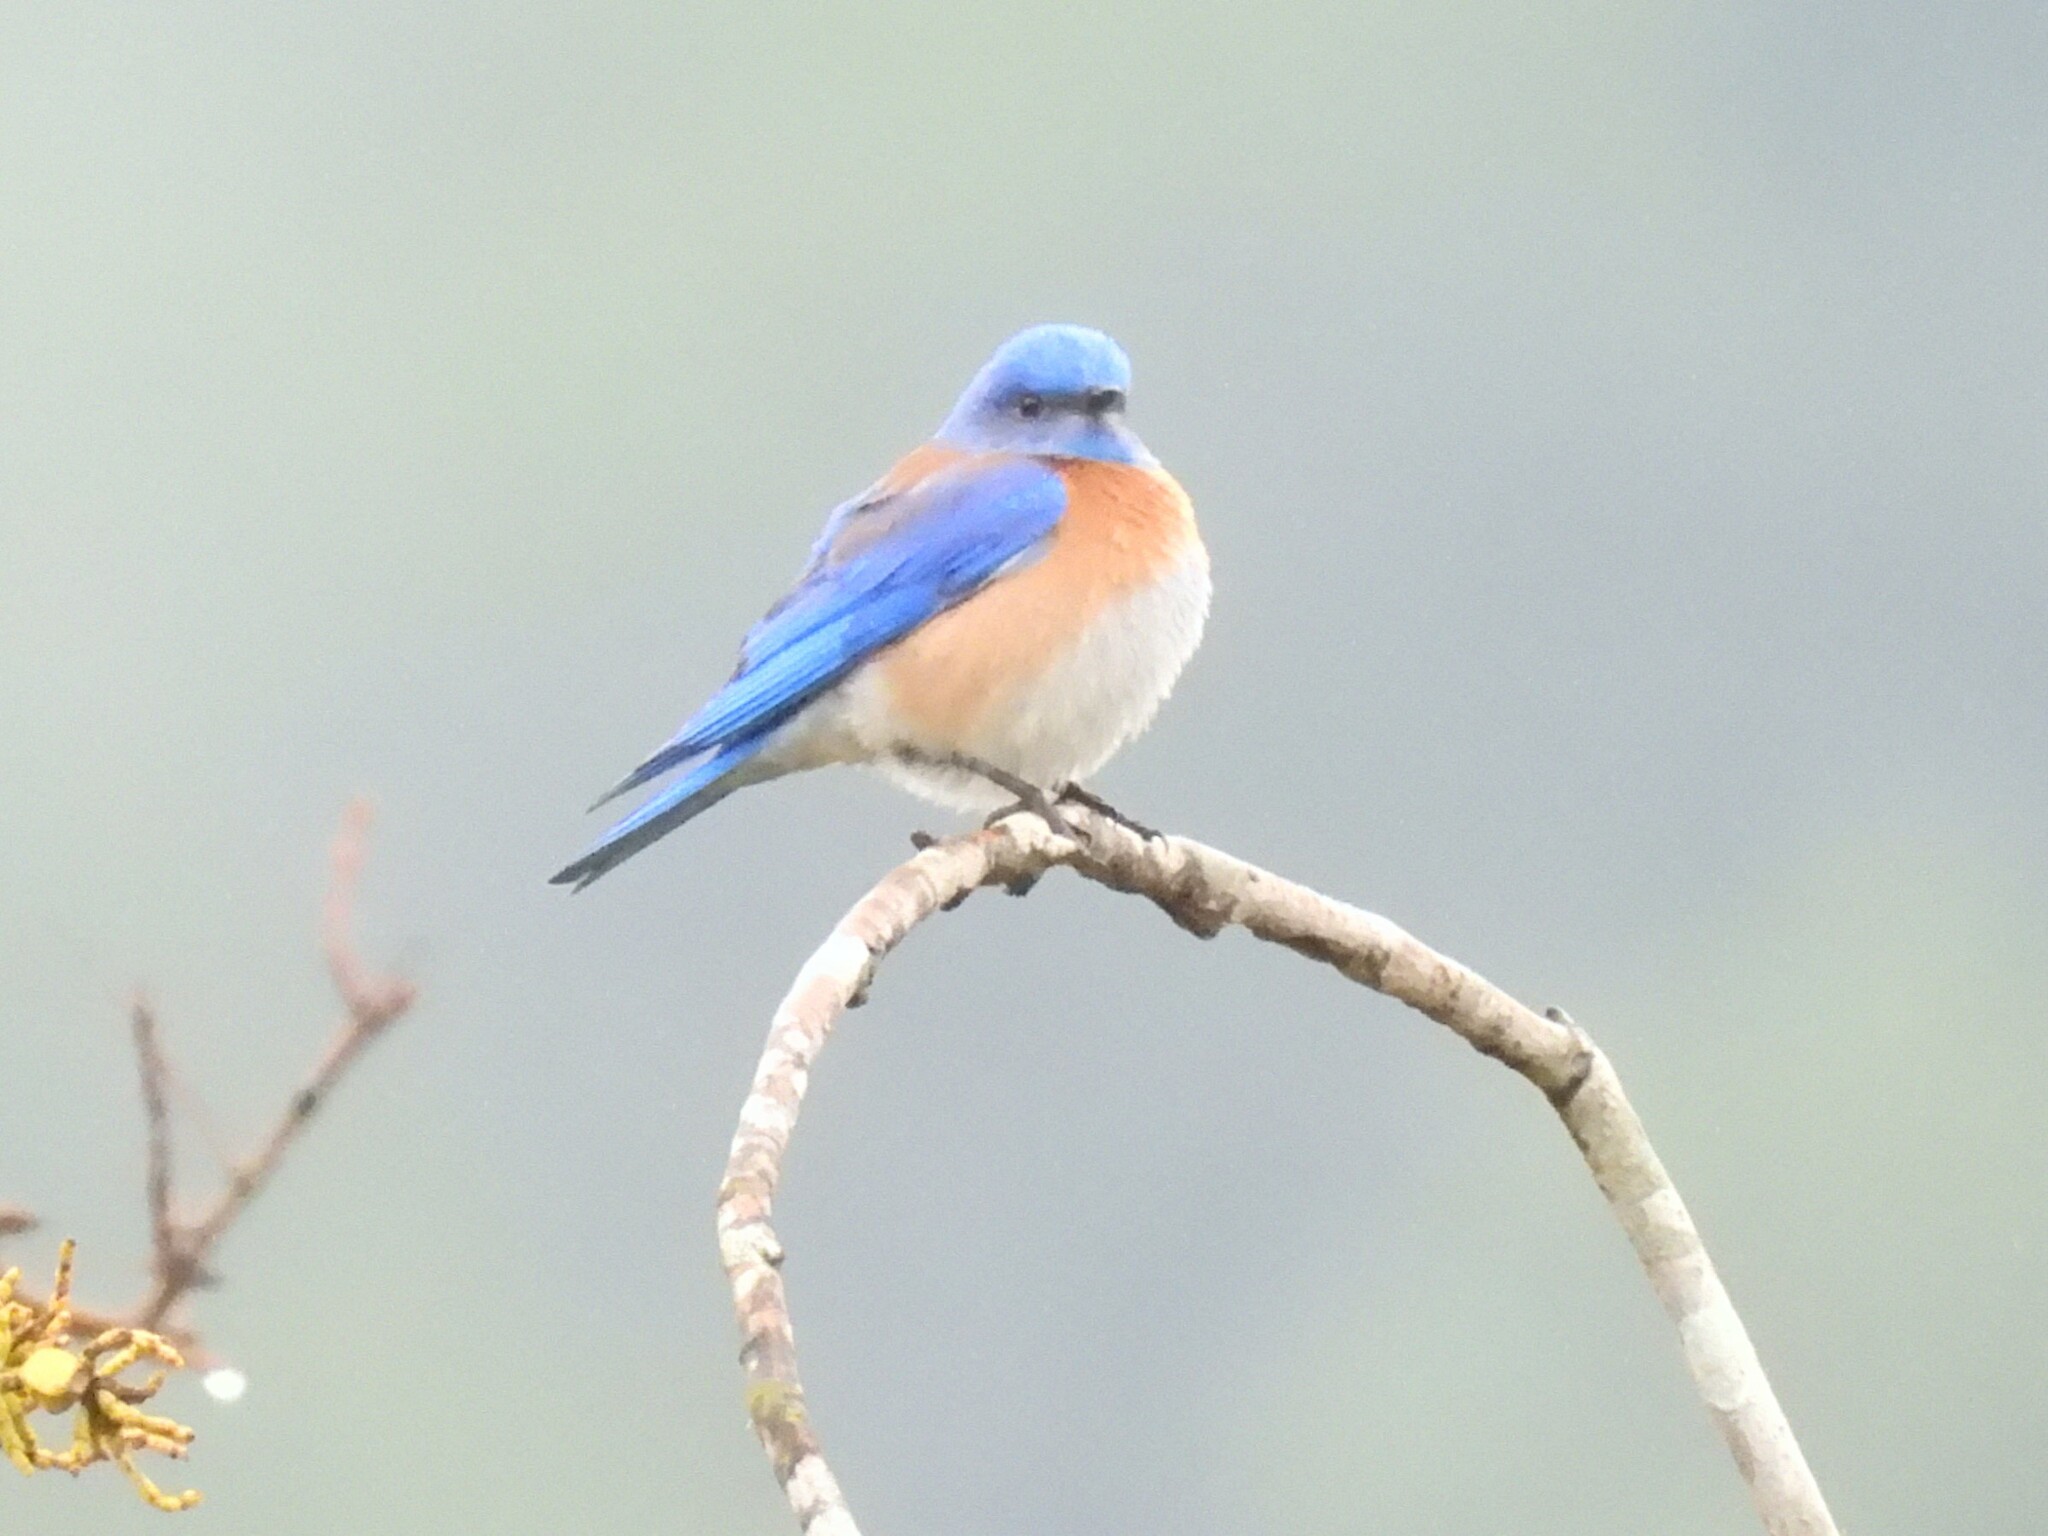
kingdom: Animalia
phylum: Chordata
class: Aves
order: Passeriformes
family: Turdidae
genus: Sialia
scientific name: Sialia mexicana
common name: Western bluebird
